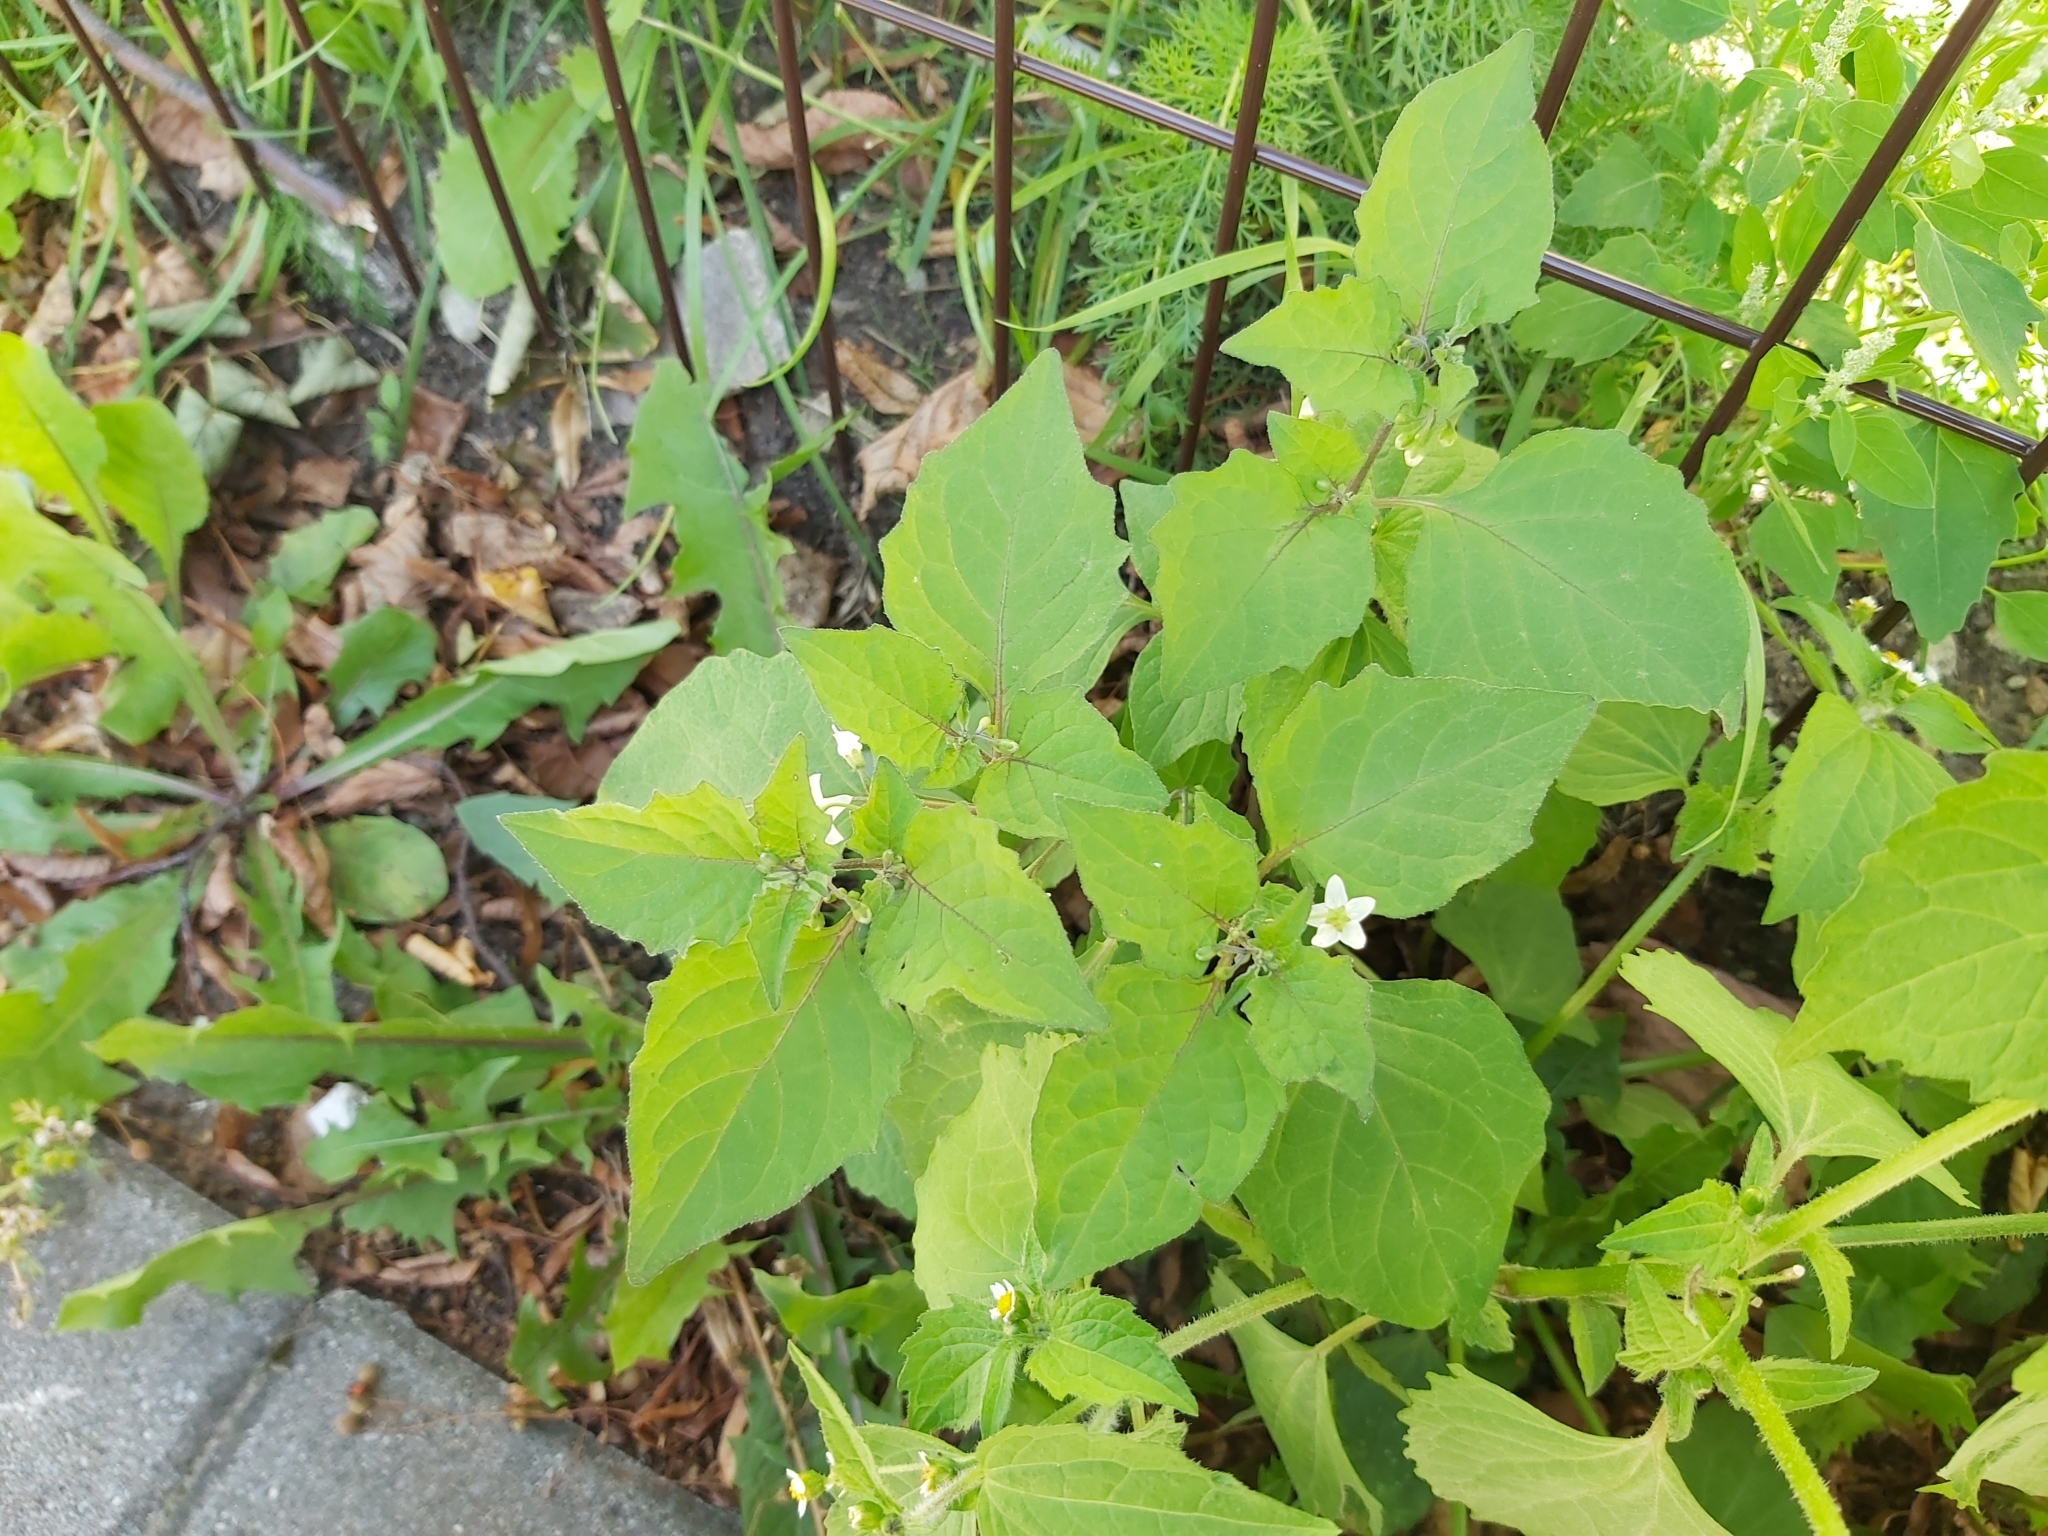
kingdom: Plantae
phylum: Tracheophyta
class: Magnoliopsida
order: Solanales
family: Solanaceae
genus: Solanum
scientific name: Solanum nigrum
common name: Black nightshade
